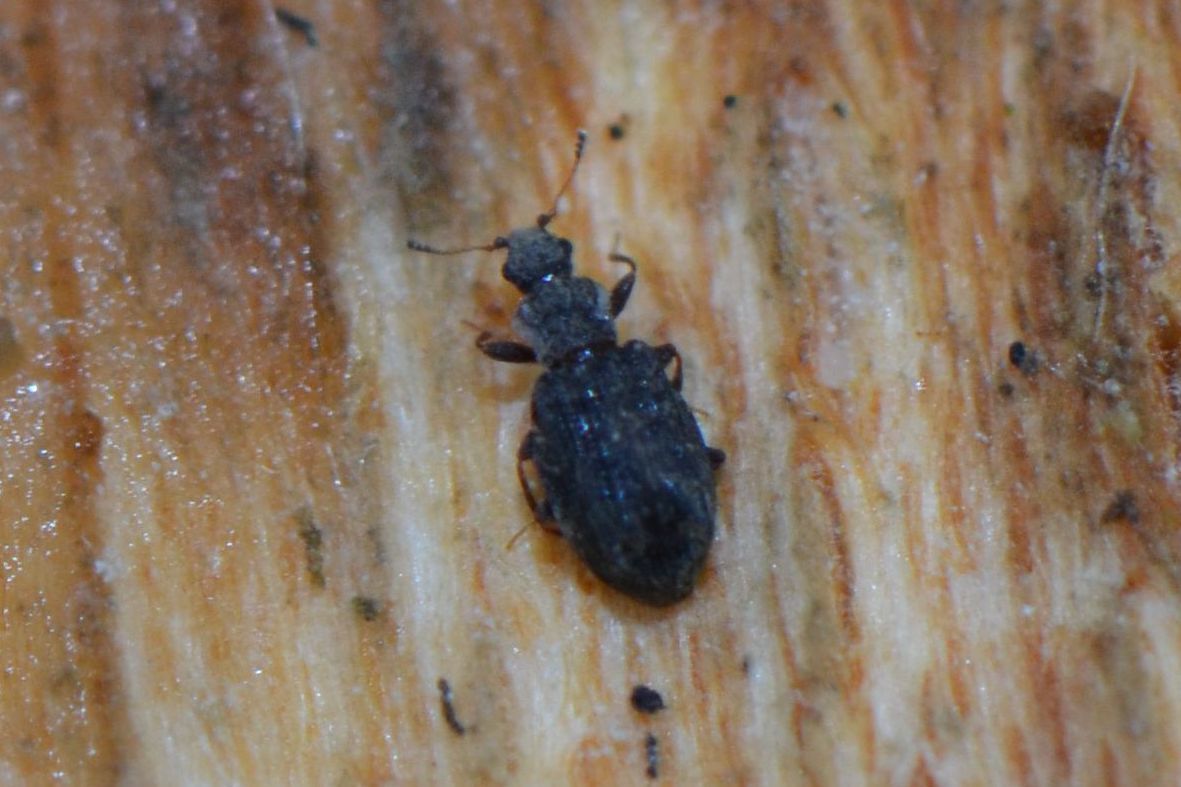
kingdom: Animalia
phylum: Arthropoda
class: Insecta
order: Coleoptera
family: Latridiidae
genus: Cartodere
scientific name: Cartodere nodifer
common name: Humpbacked minute scavenger beetle
